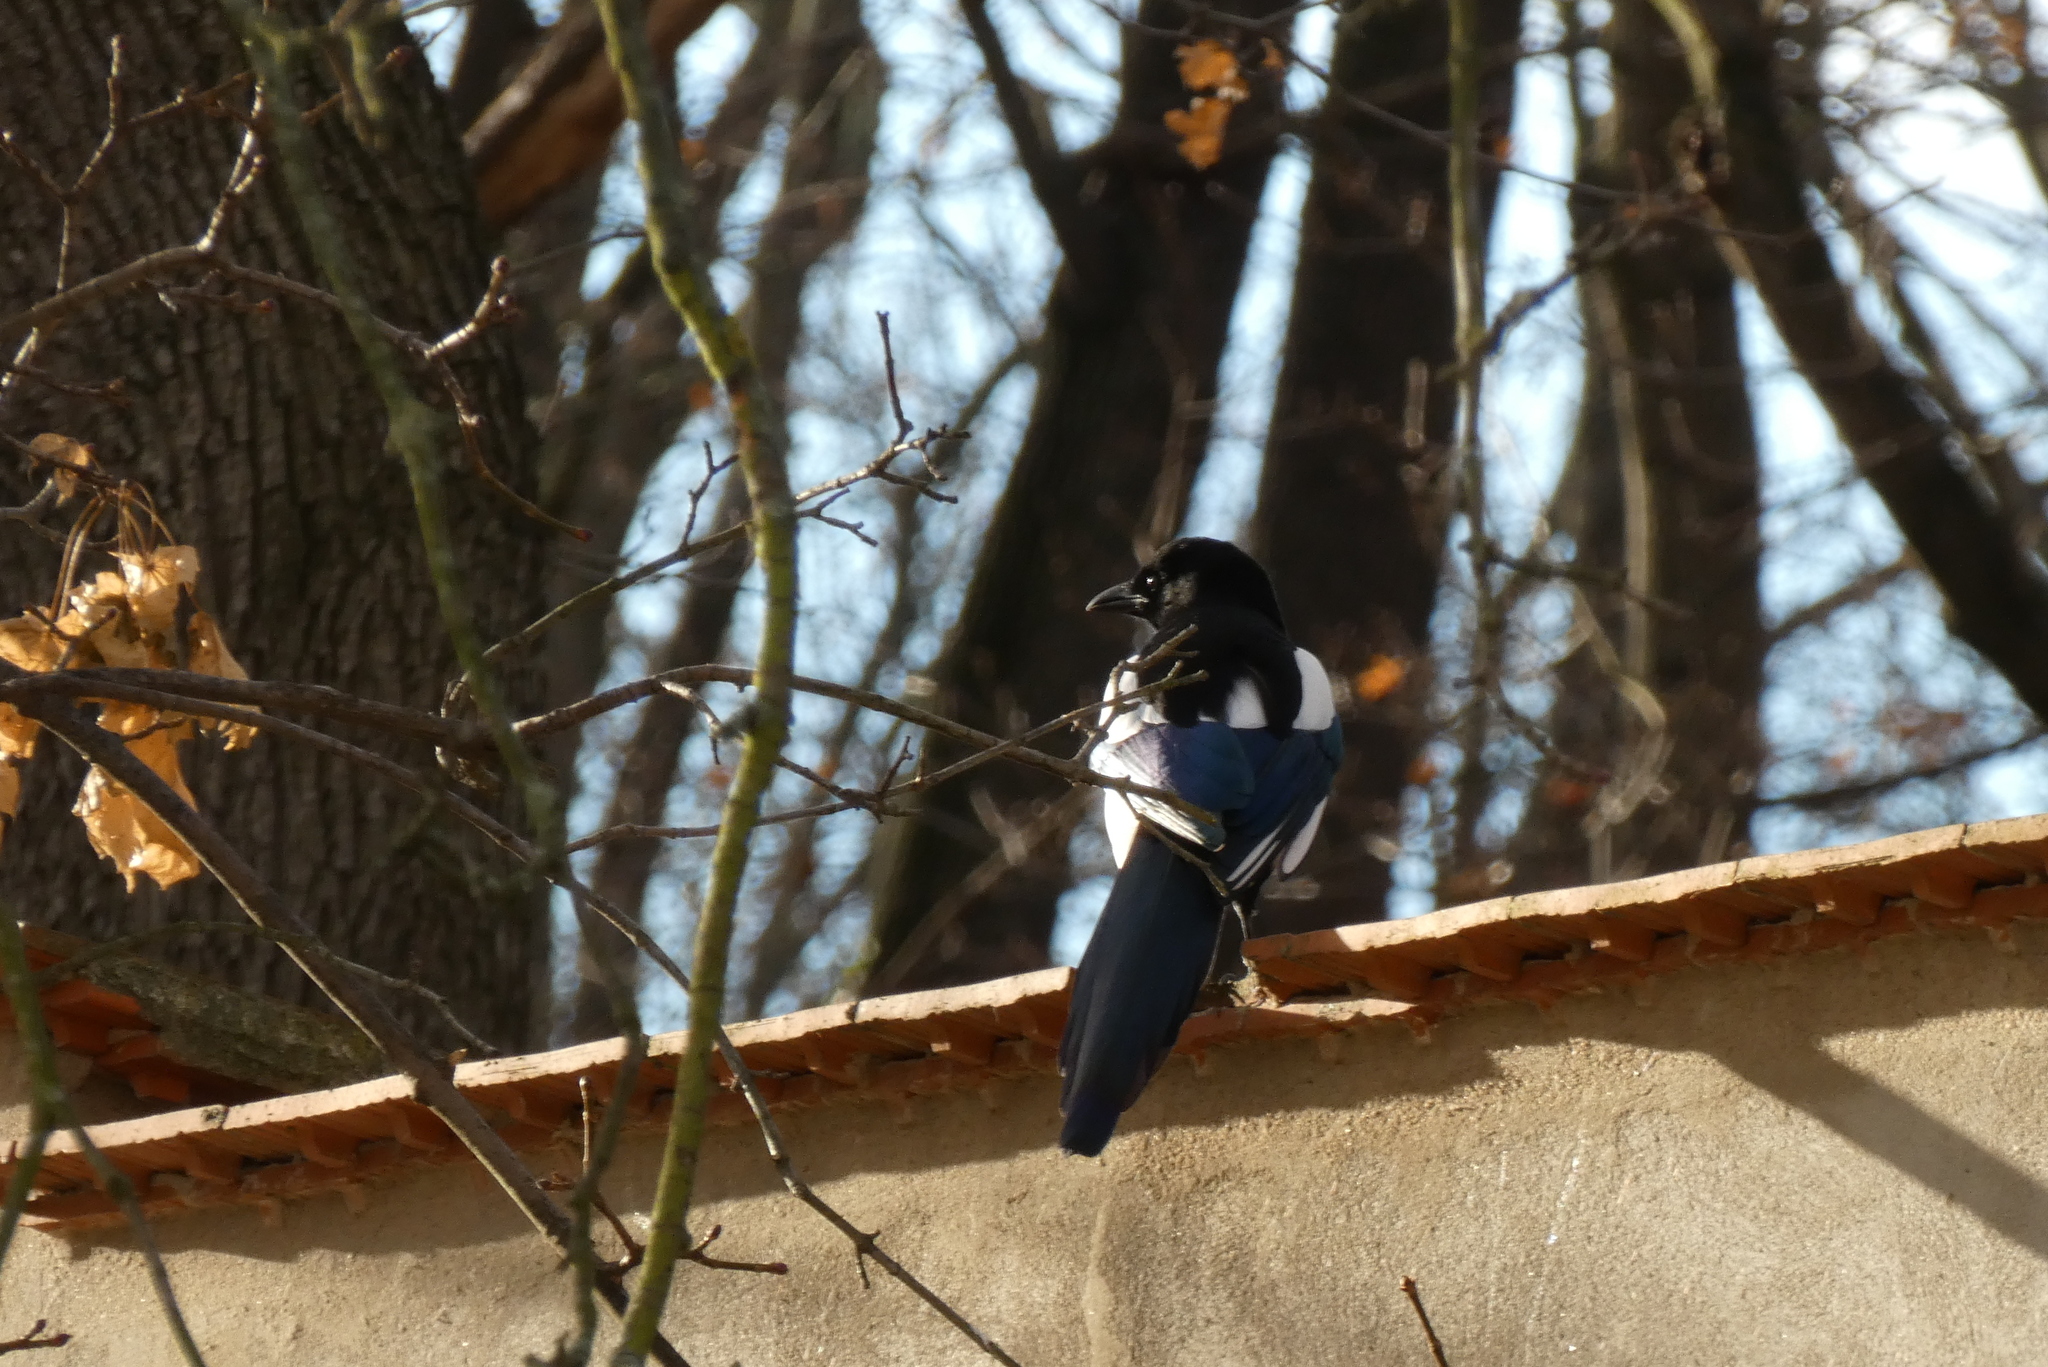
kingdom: Animalia
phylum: Chordata
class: Aves
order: Passeriformes
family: Corvidae
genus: Pica
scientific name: Pica pica
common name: Eurasian magpie
